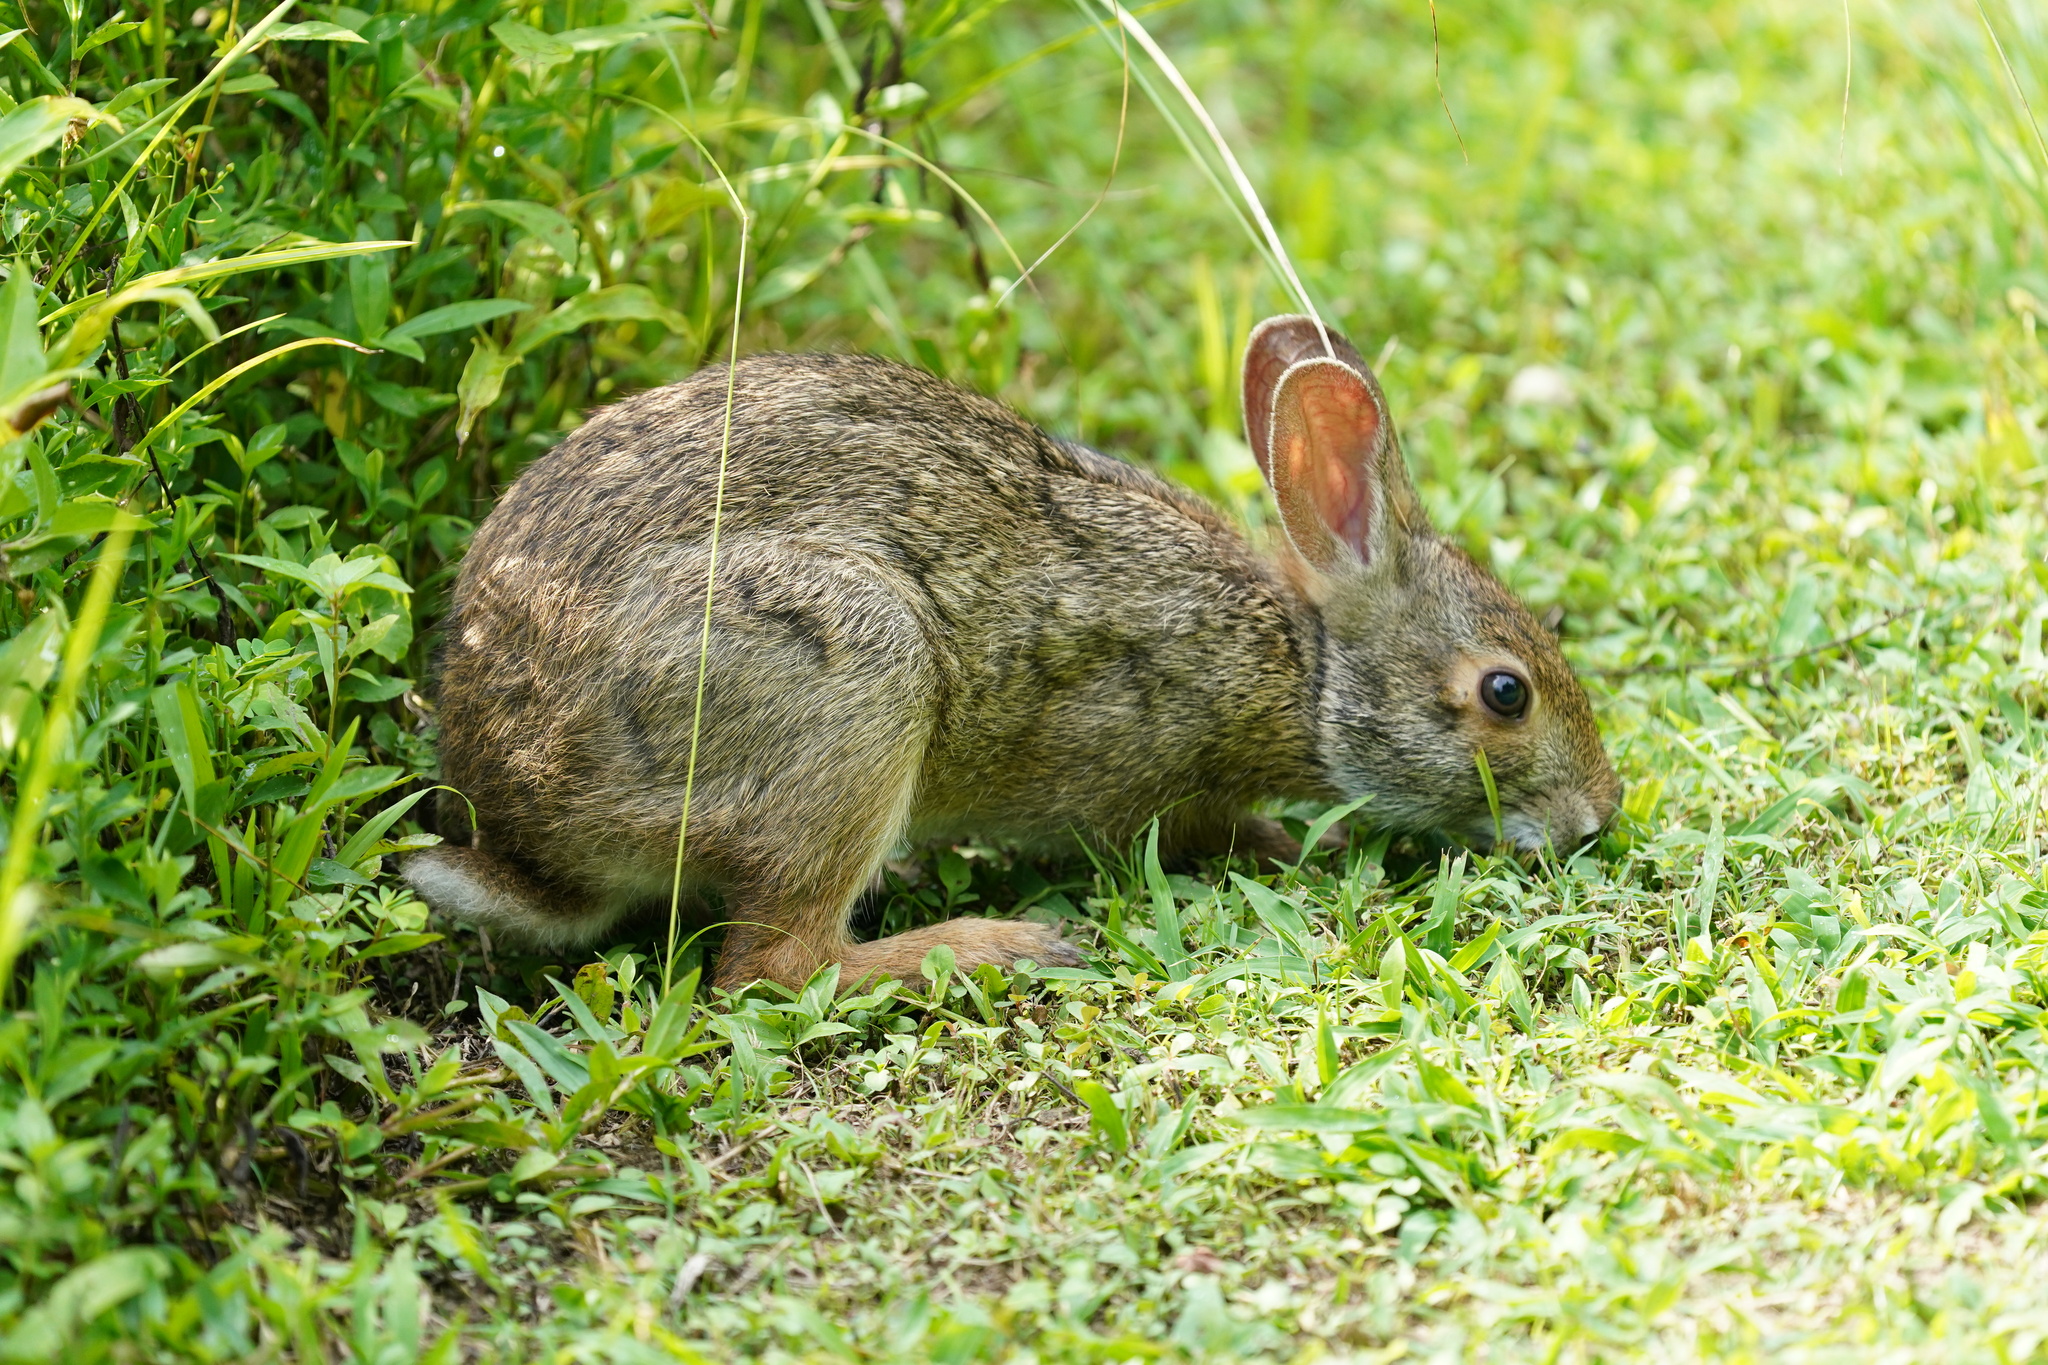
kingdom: Animalia
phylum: Chordata
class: Mammalia
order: Lagomorpha
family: Leporidae
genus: Sylvilagus
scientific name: Sylvilagus aquaticus
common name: Swamp rabbit
